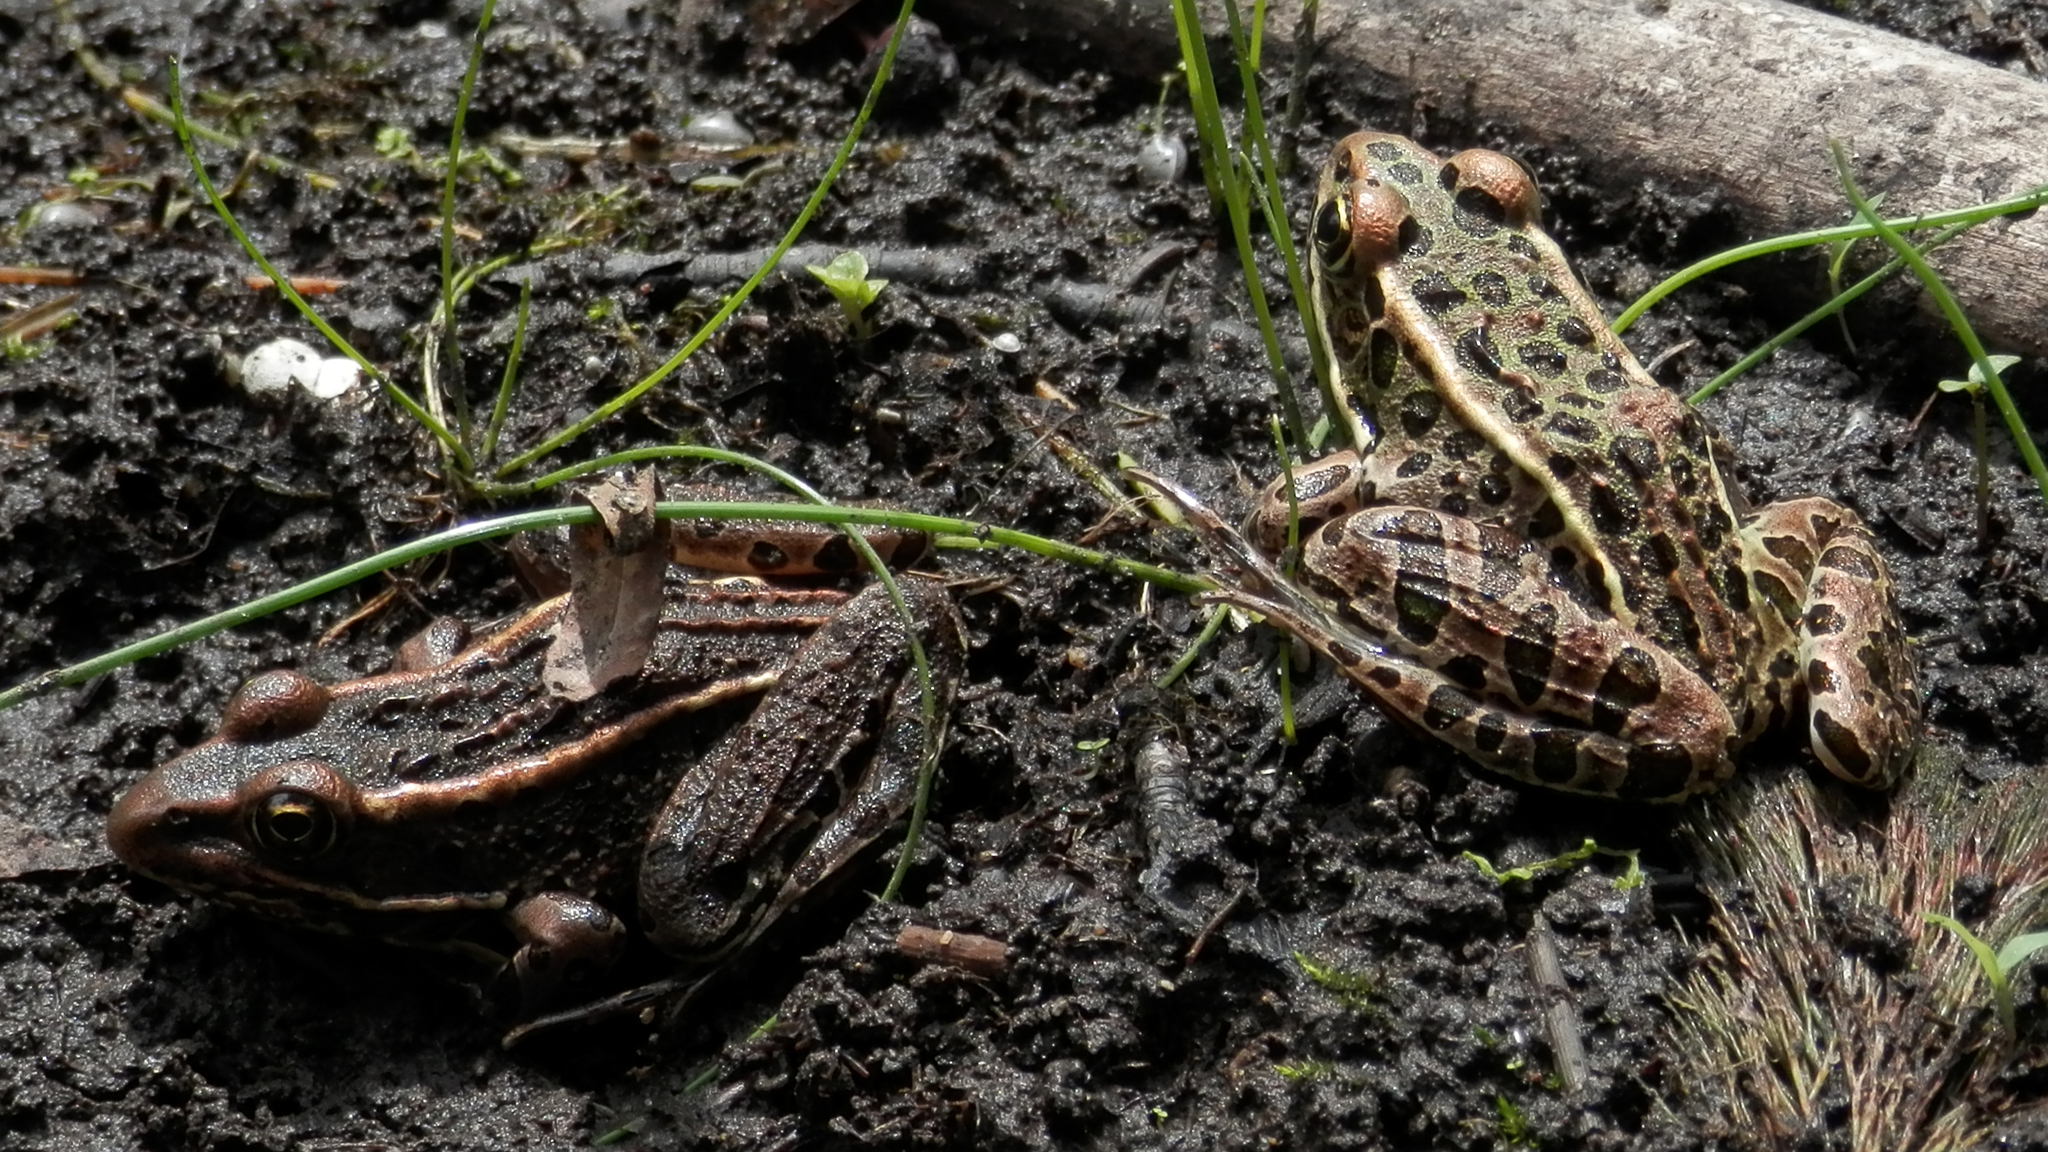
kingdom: Animalia
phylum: Chordata
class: Amphibia
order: Anura
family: Ranidae
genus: Lithobates
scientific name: Lithobates pipiens
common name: Northern leopard frog
